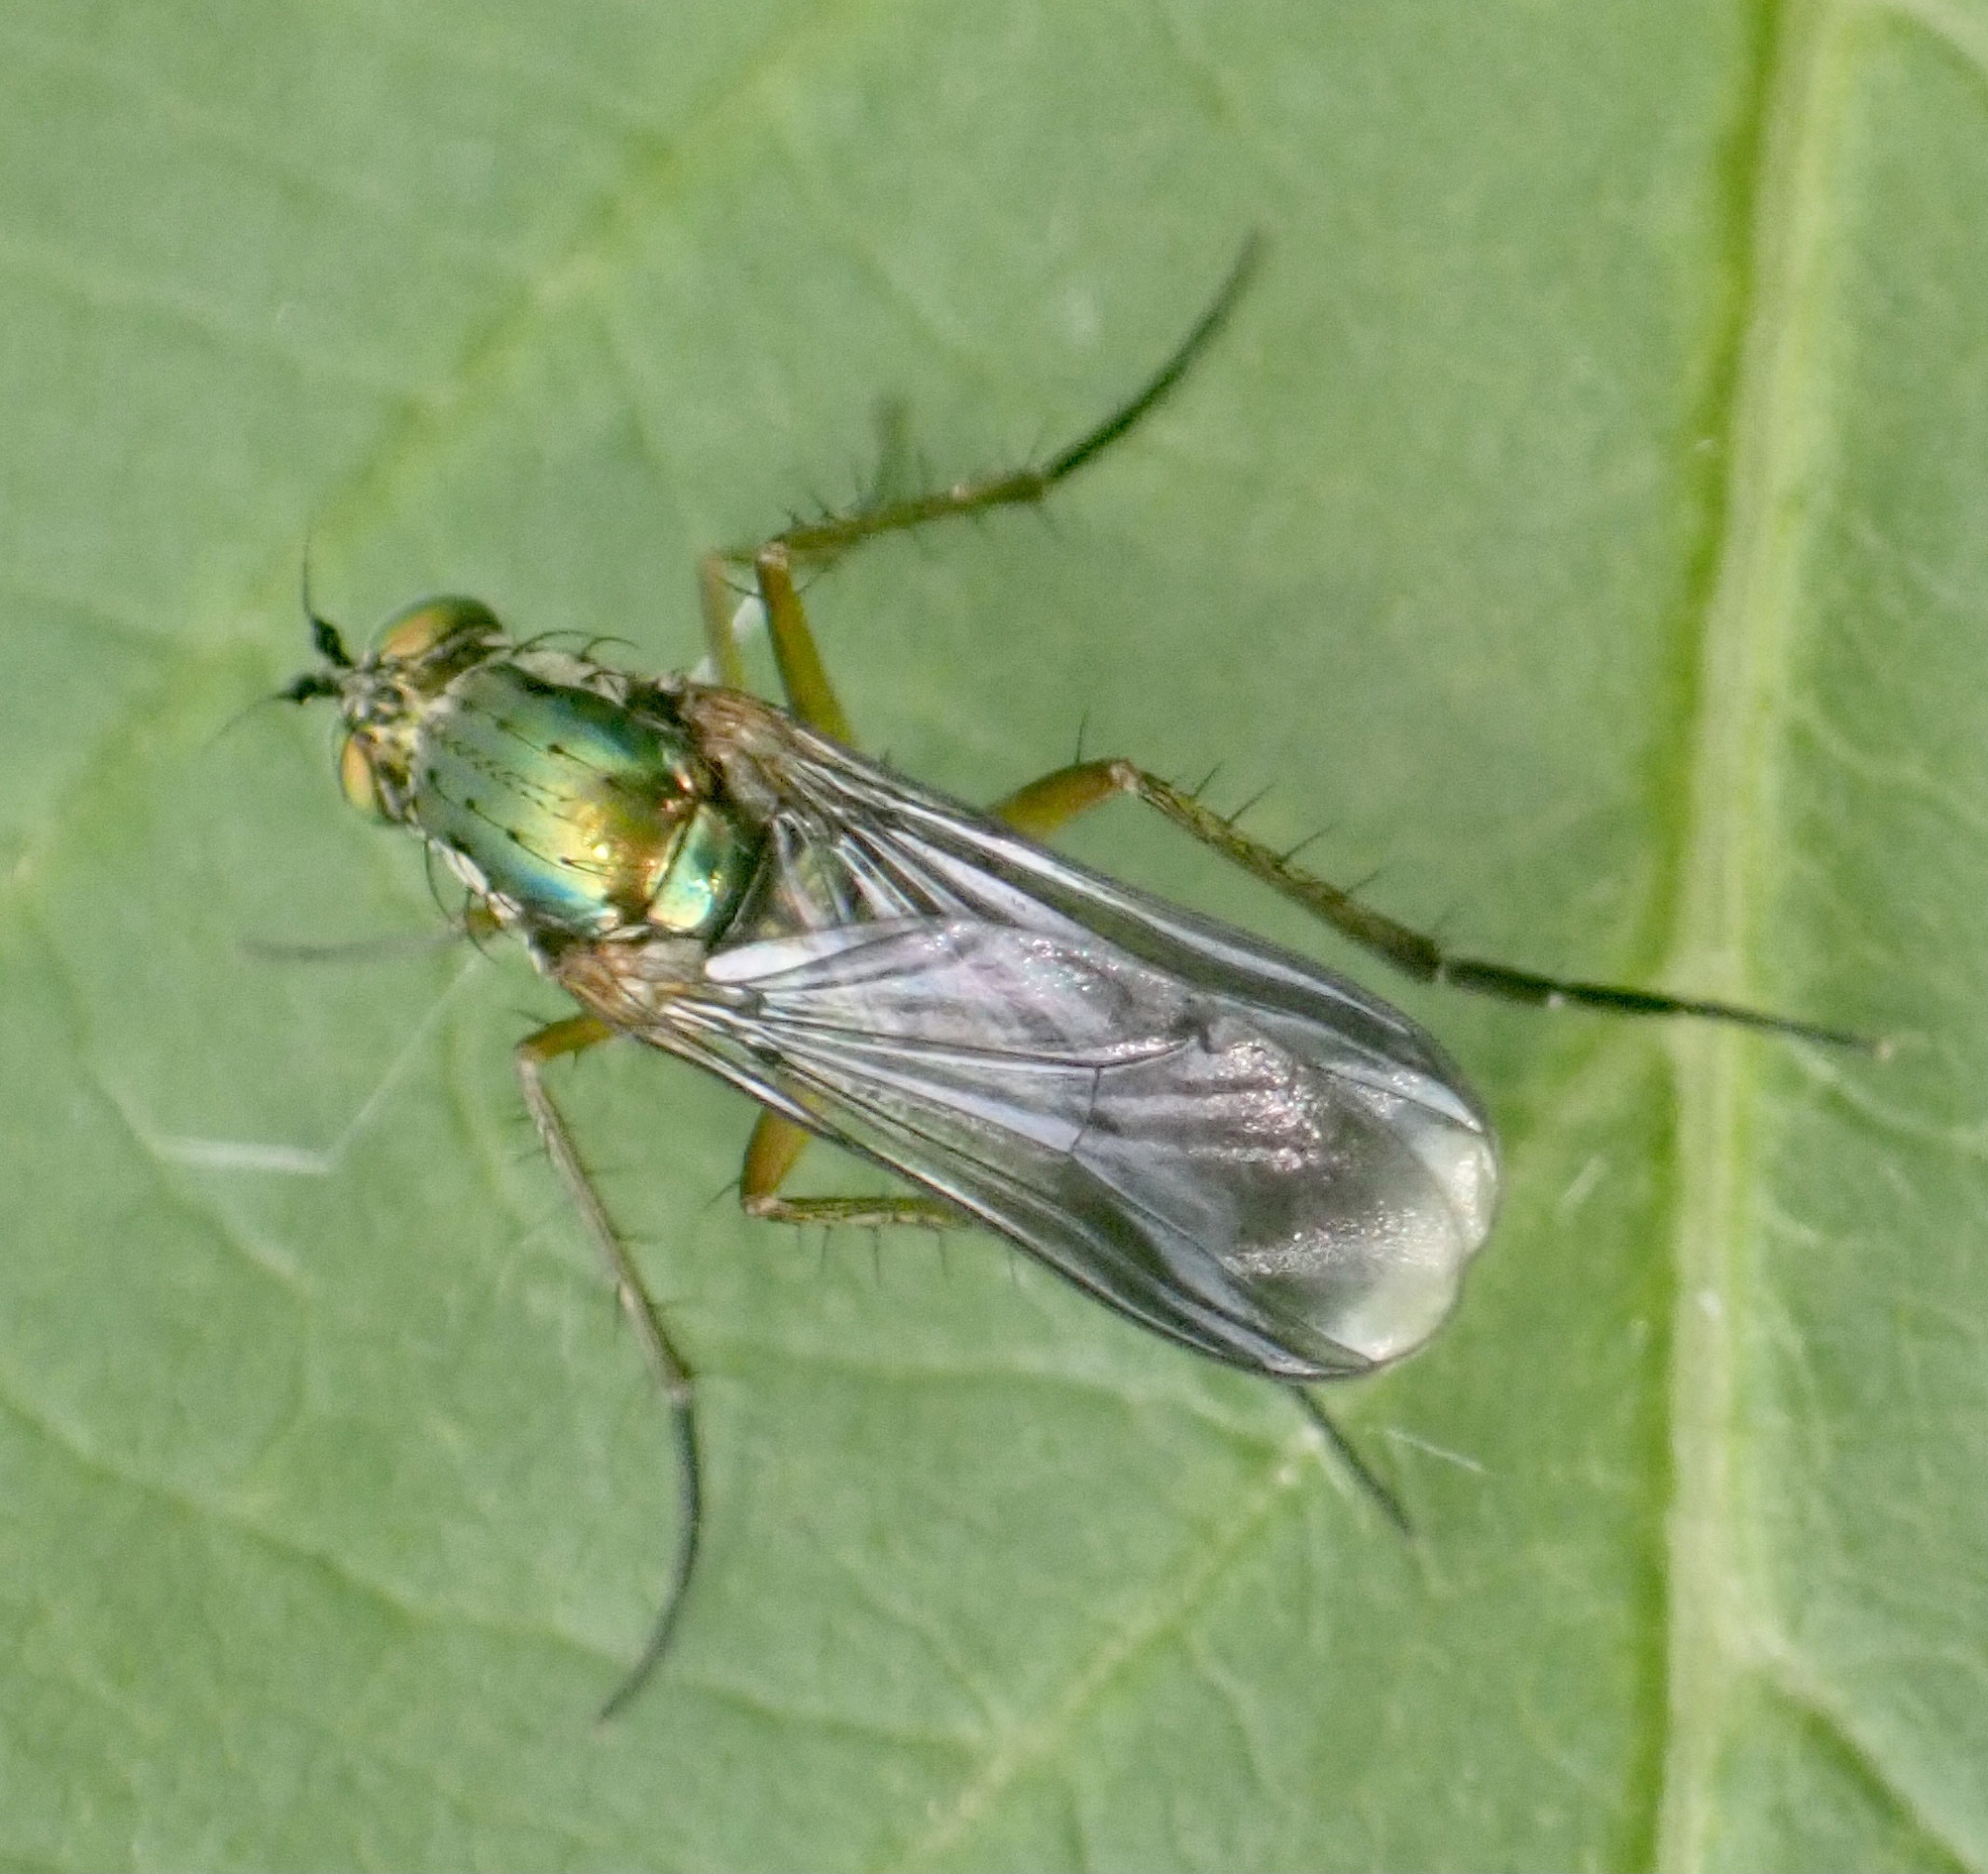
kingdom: Animalia
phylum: Arthropoda
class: Insecta
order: Diptera
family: Dolichopodidae
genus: Poecilobothrus
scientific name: Poecilobothrus nobilitatus
